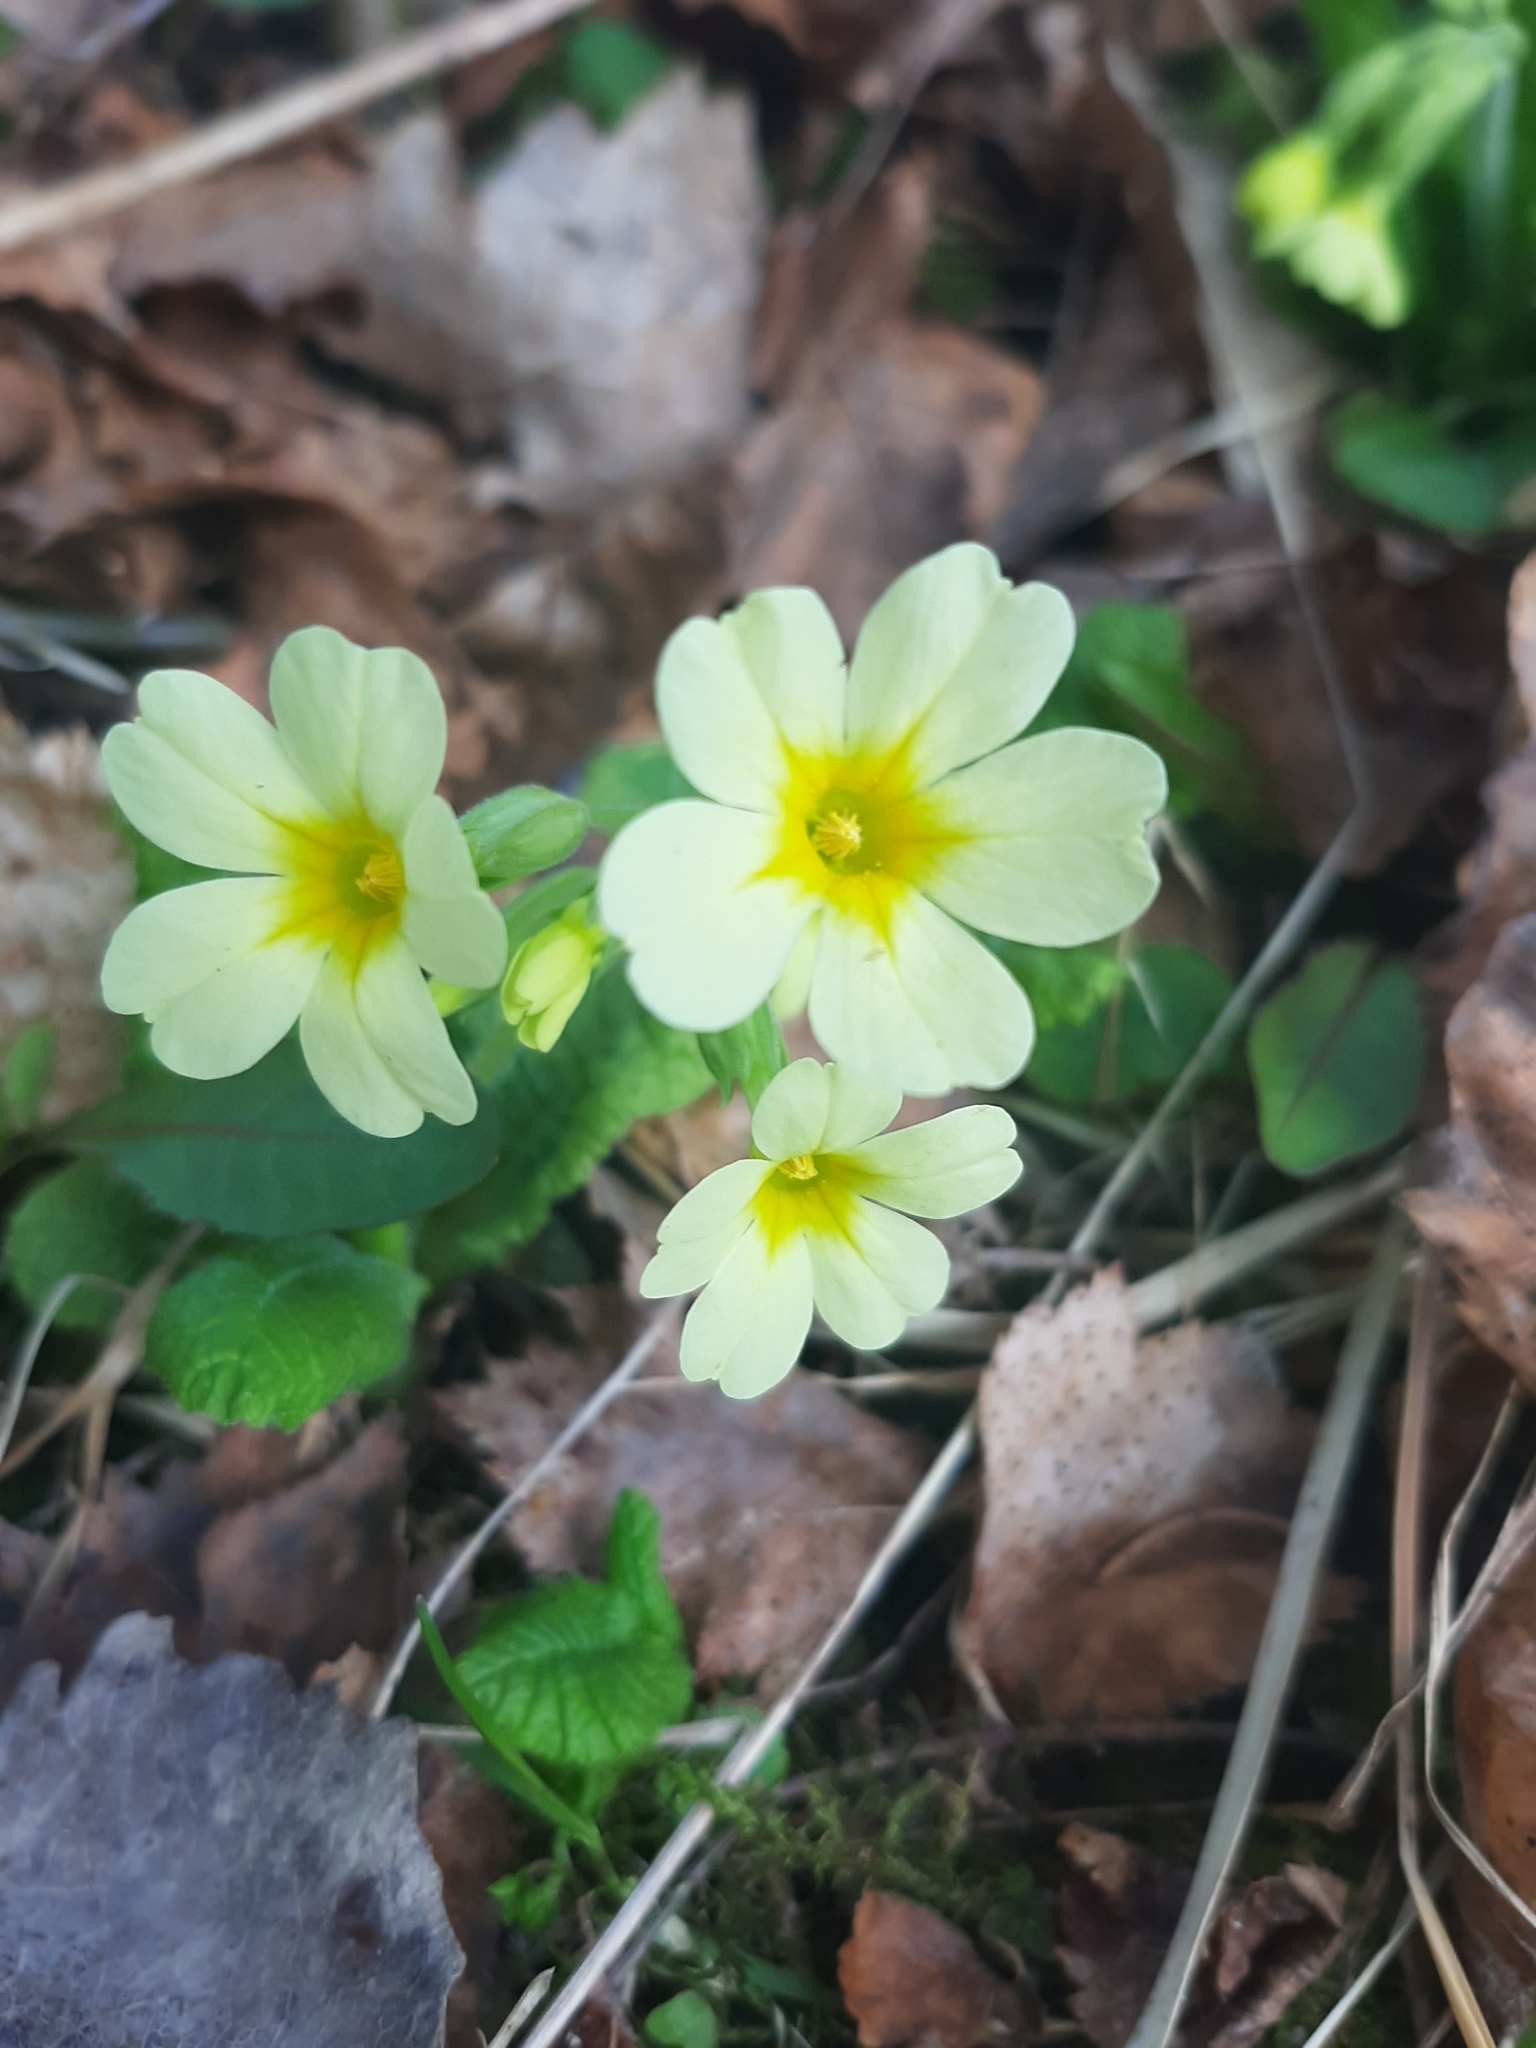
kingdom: Plantae
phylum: Tracheophyta
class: Magnoliopsida
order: Ericales
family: Primulaceae
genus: Primula
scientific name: Primula elatior
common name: Oxlip
